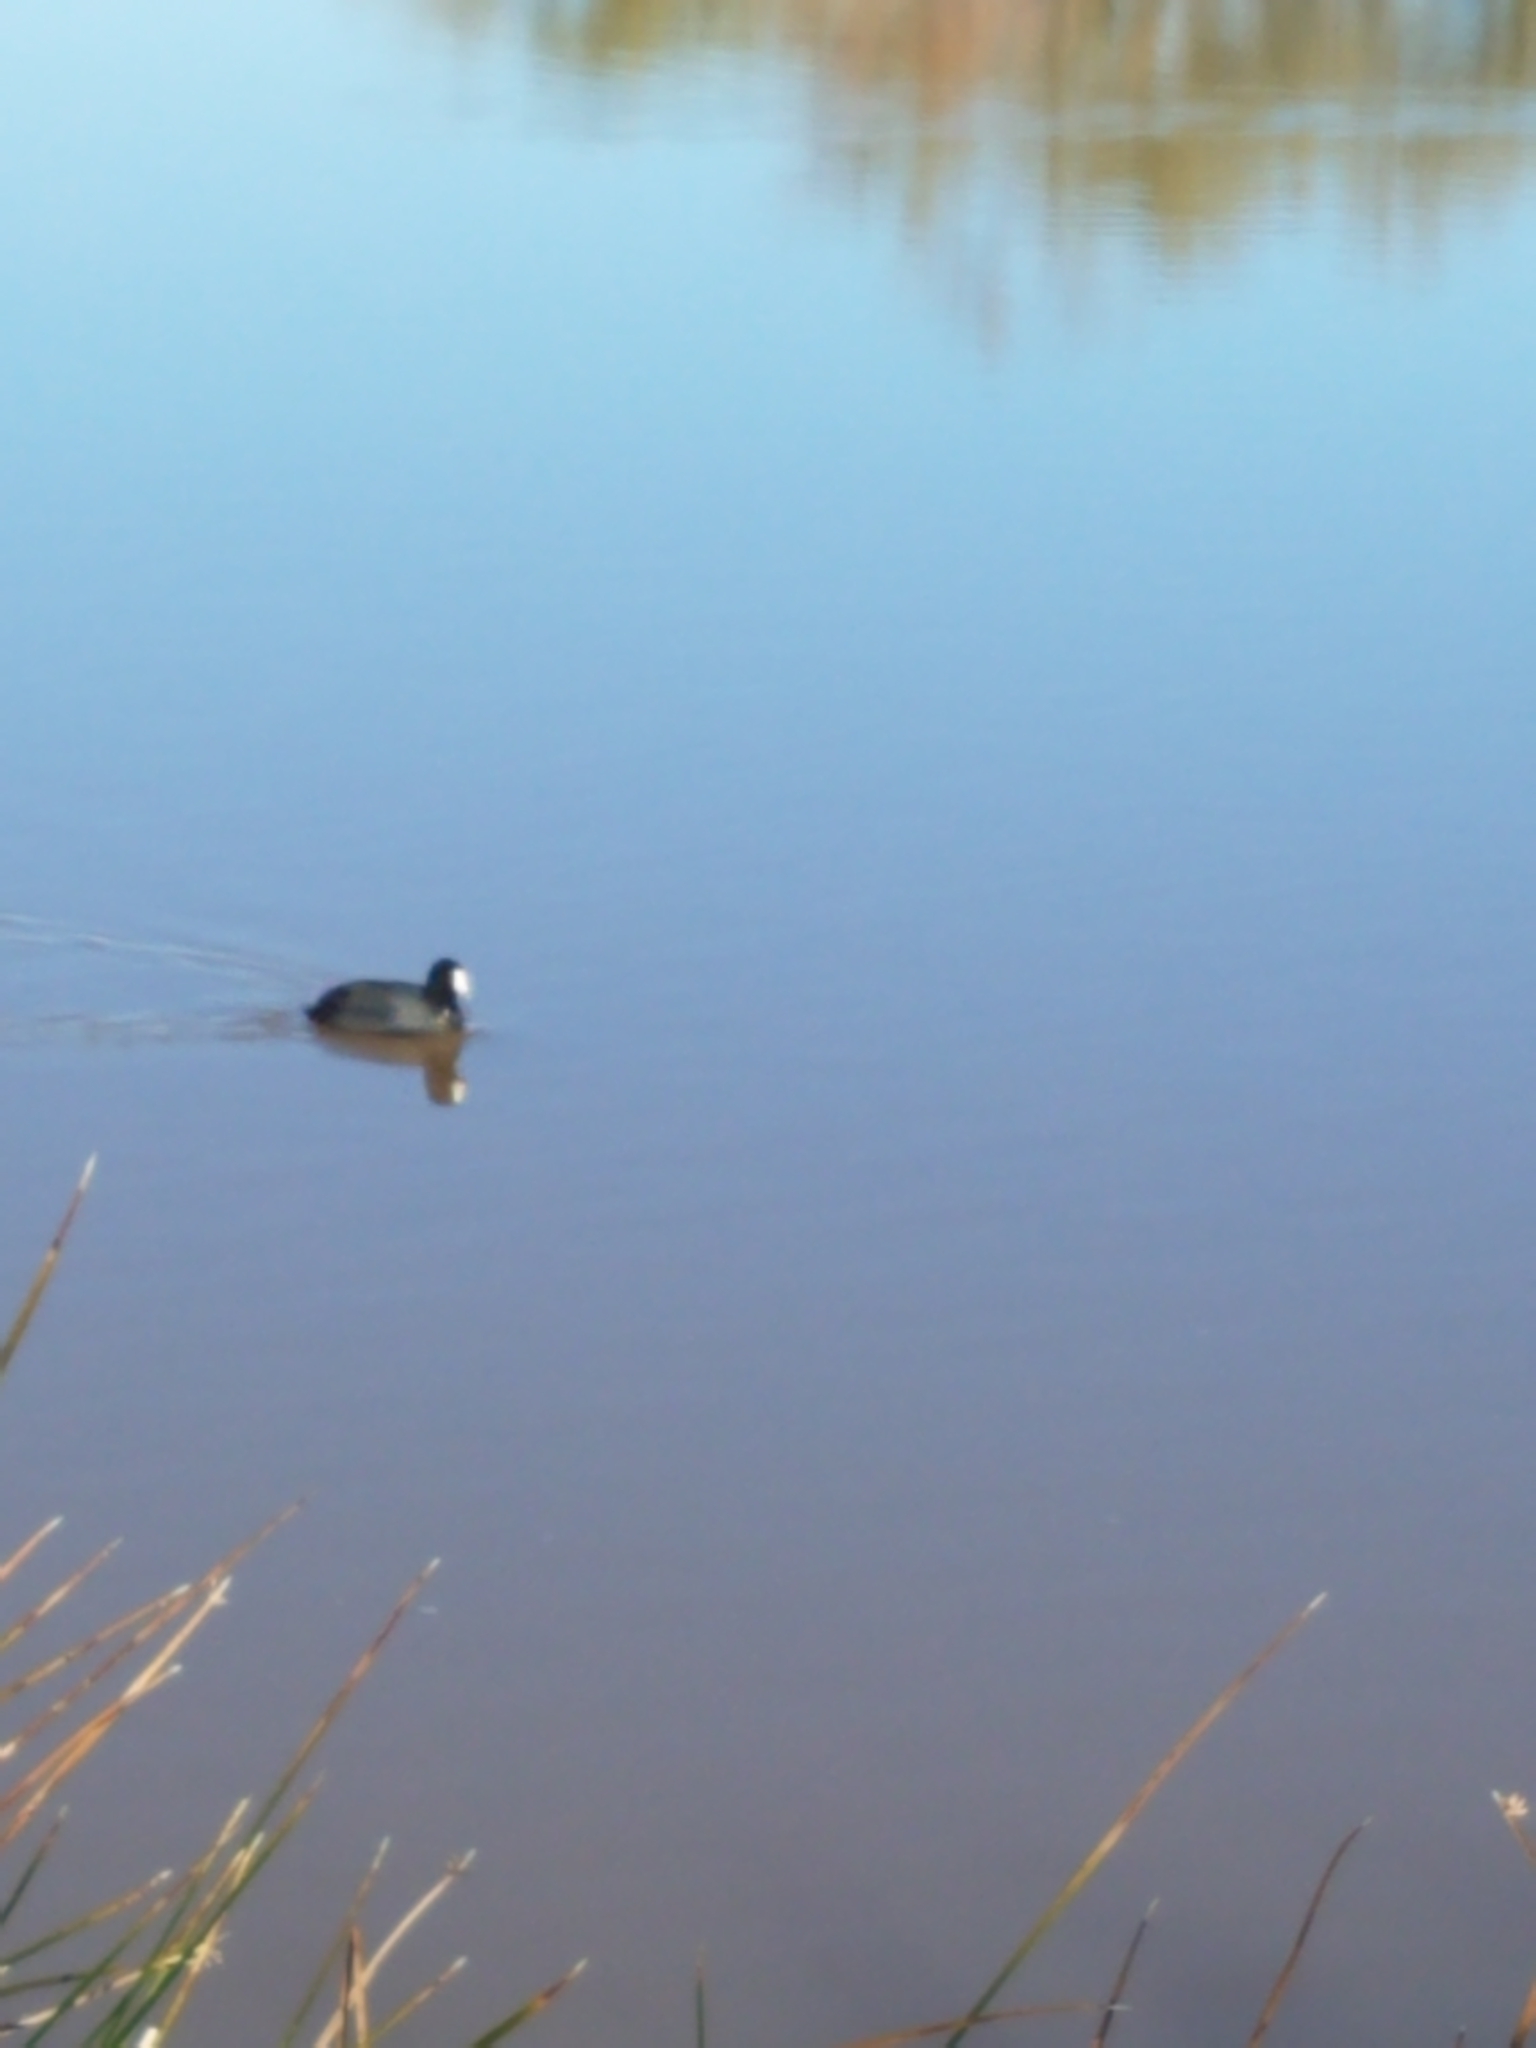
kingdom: Animalia
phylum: Chordata
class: Aves
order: Gruiformes
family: Rallidae
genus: Fulica
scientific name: Fulica americana
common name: American coot
